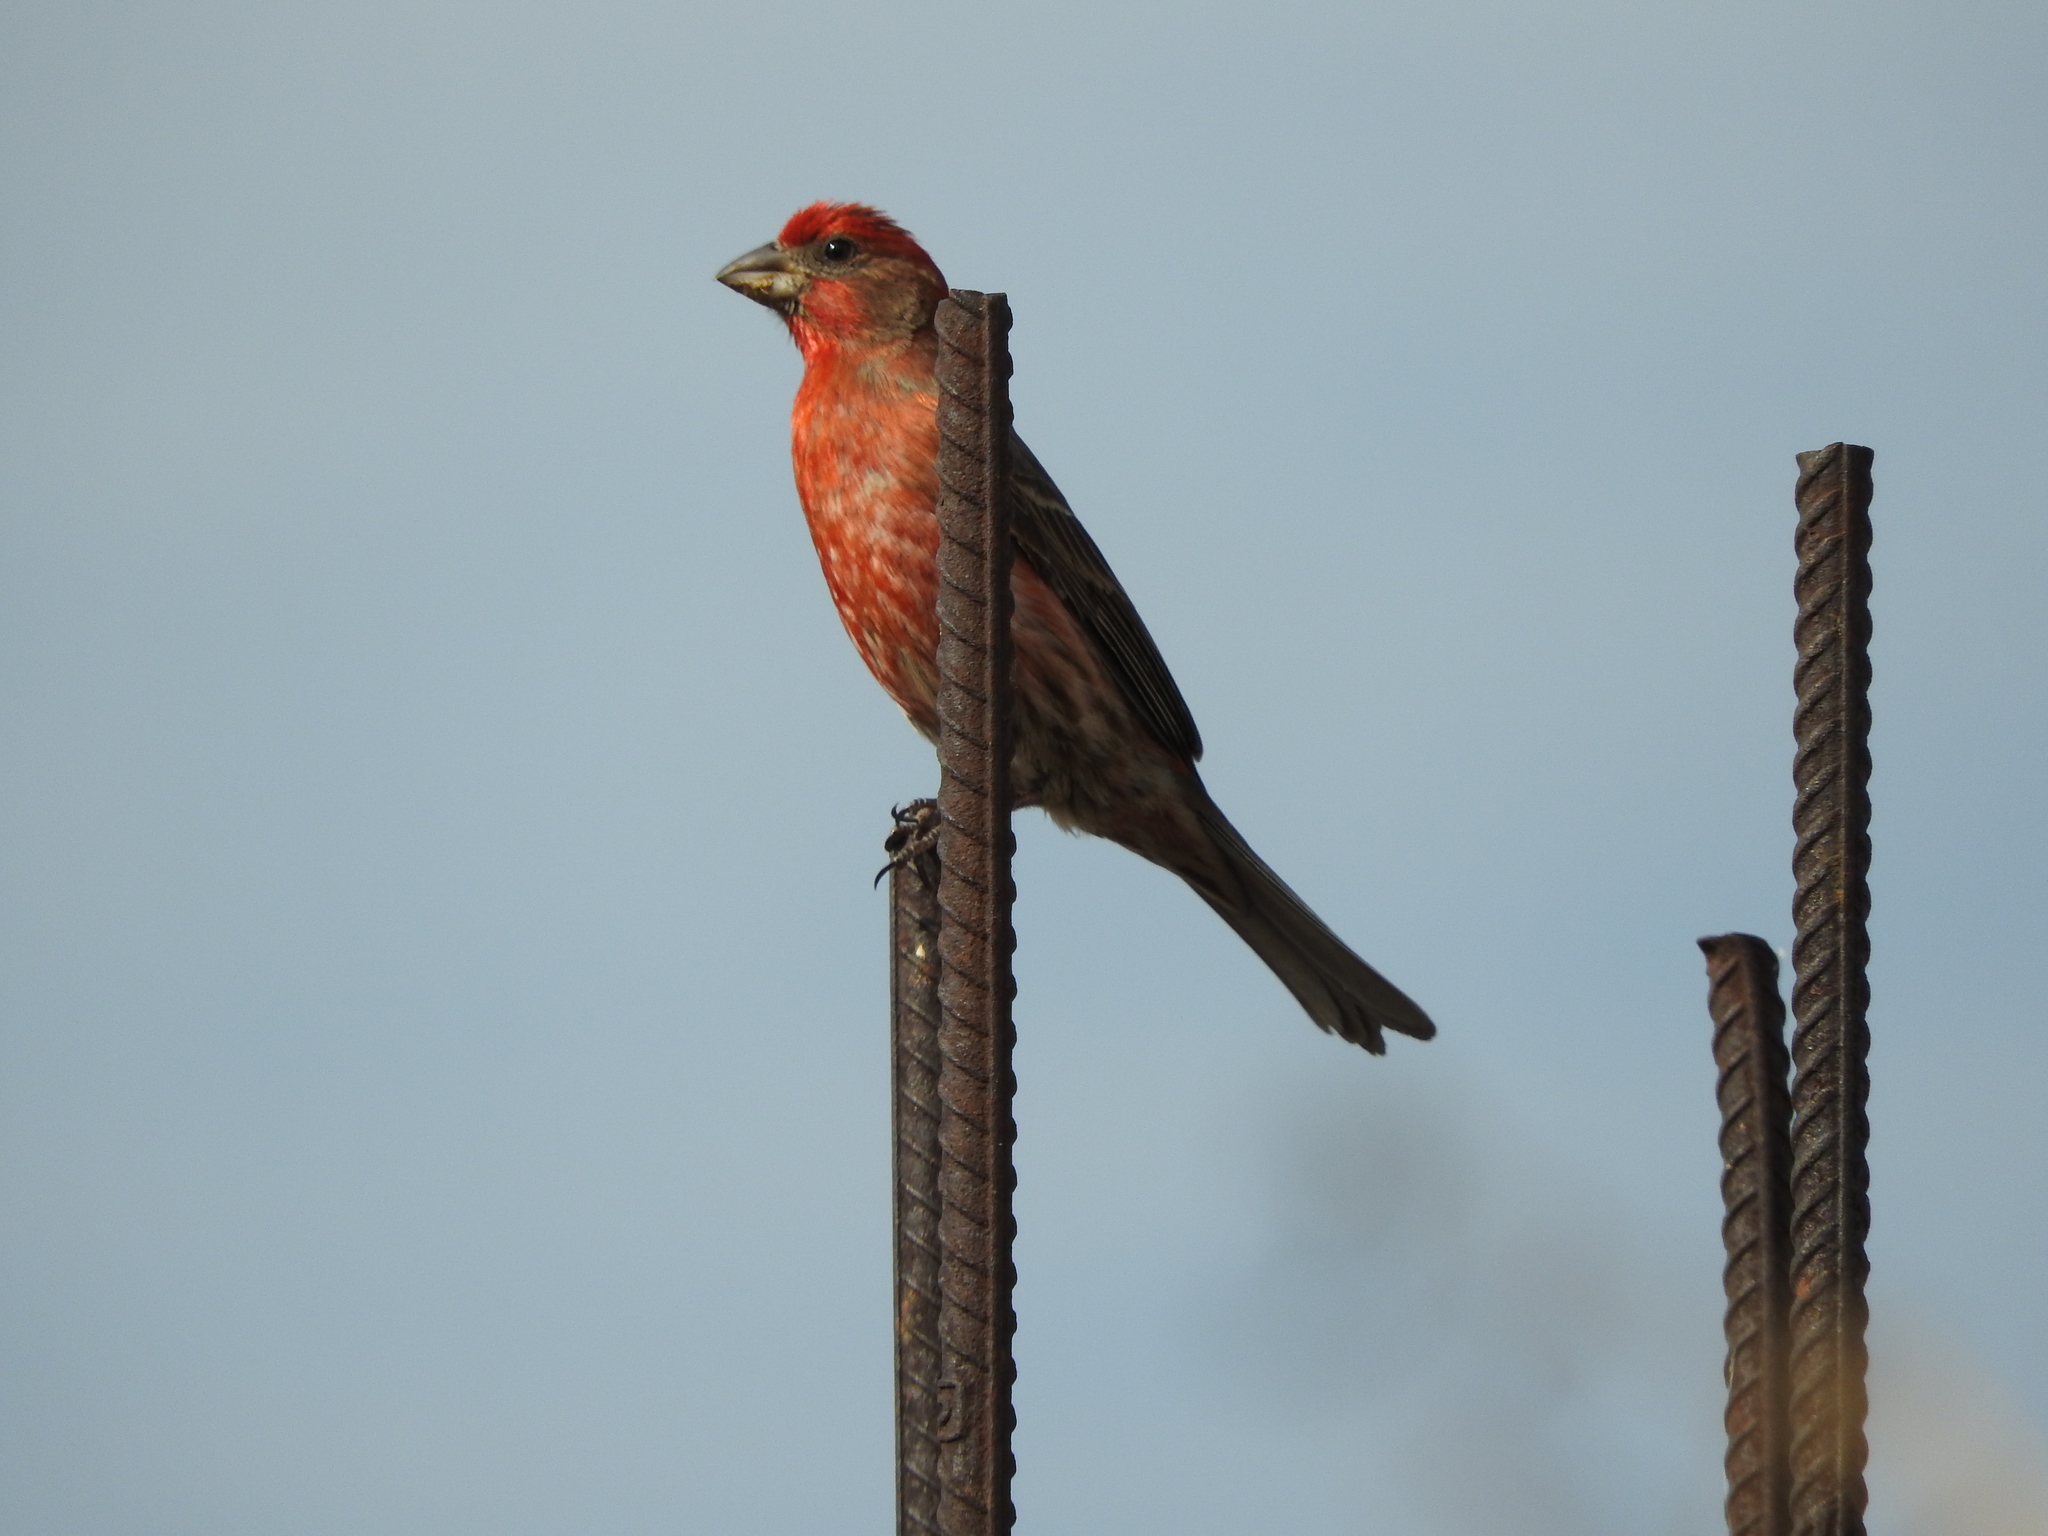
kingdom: Animalia
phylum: Chordata
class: Aves
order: Passeriformes
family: Fringillidae
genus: Haemorhous
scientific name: Haemorhous mexicanus
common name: House finch
